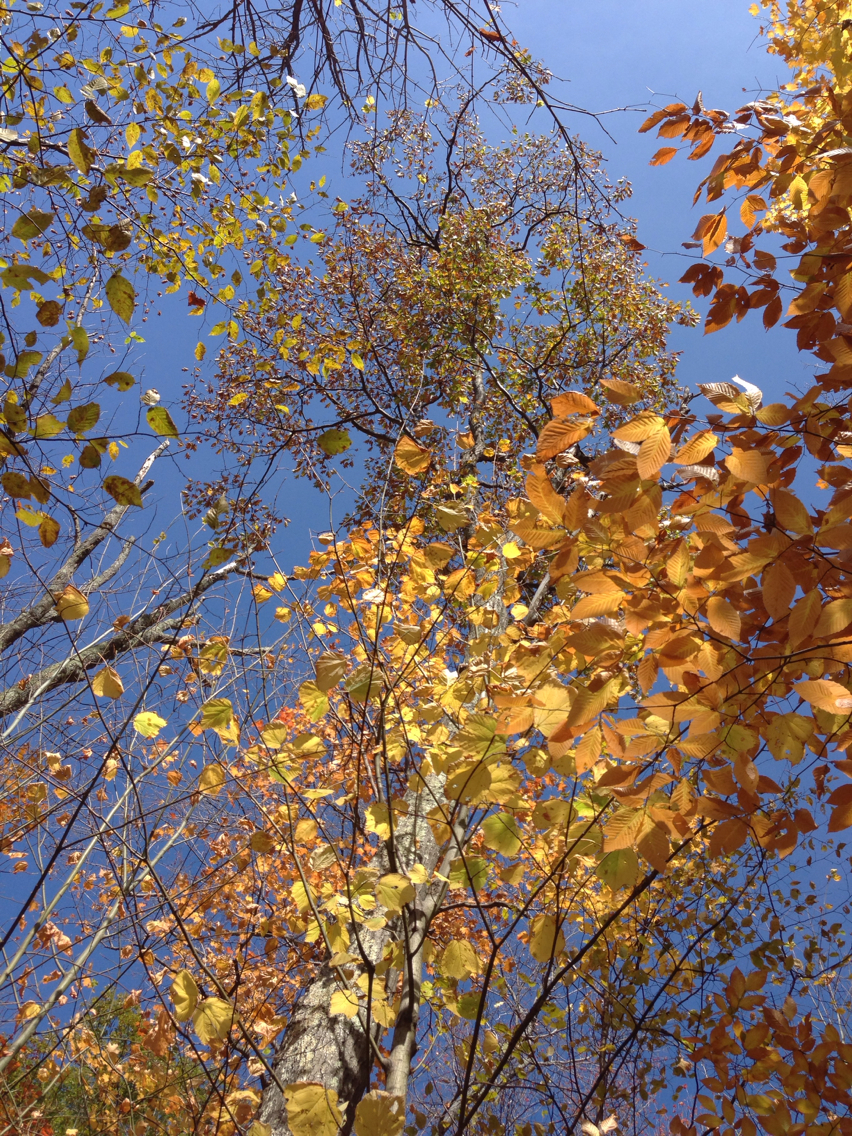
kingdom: Plantae
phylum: Tracheophyta
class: Magnoliopsida
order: Fagales
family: Fagaceae
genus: Quercus
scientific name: Quercus rubra
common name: Red oak
